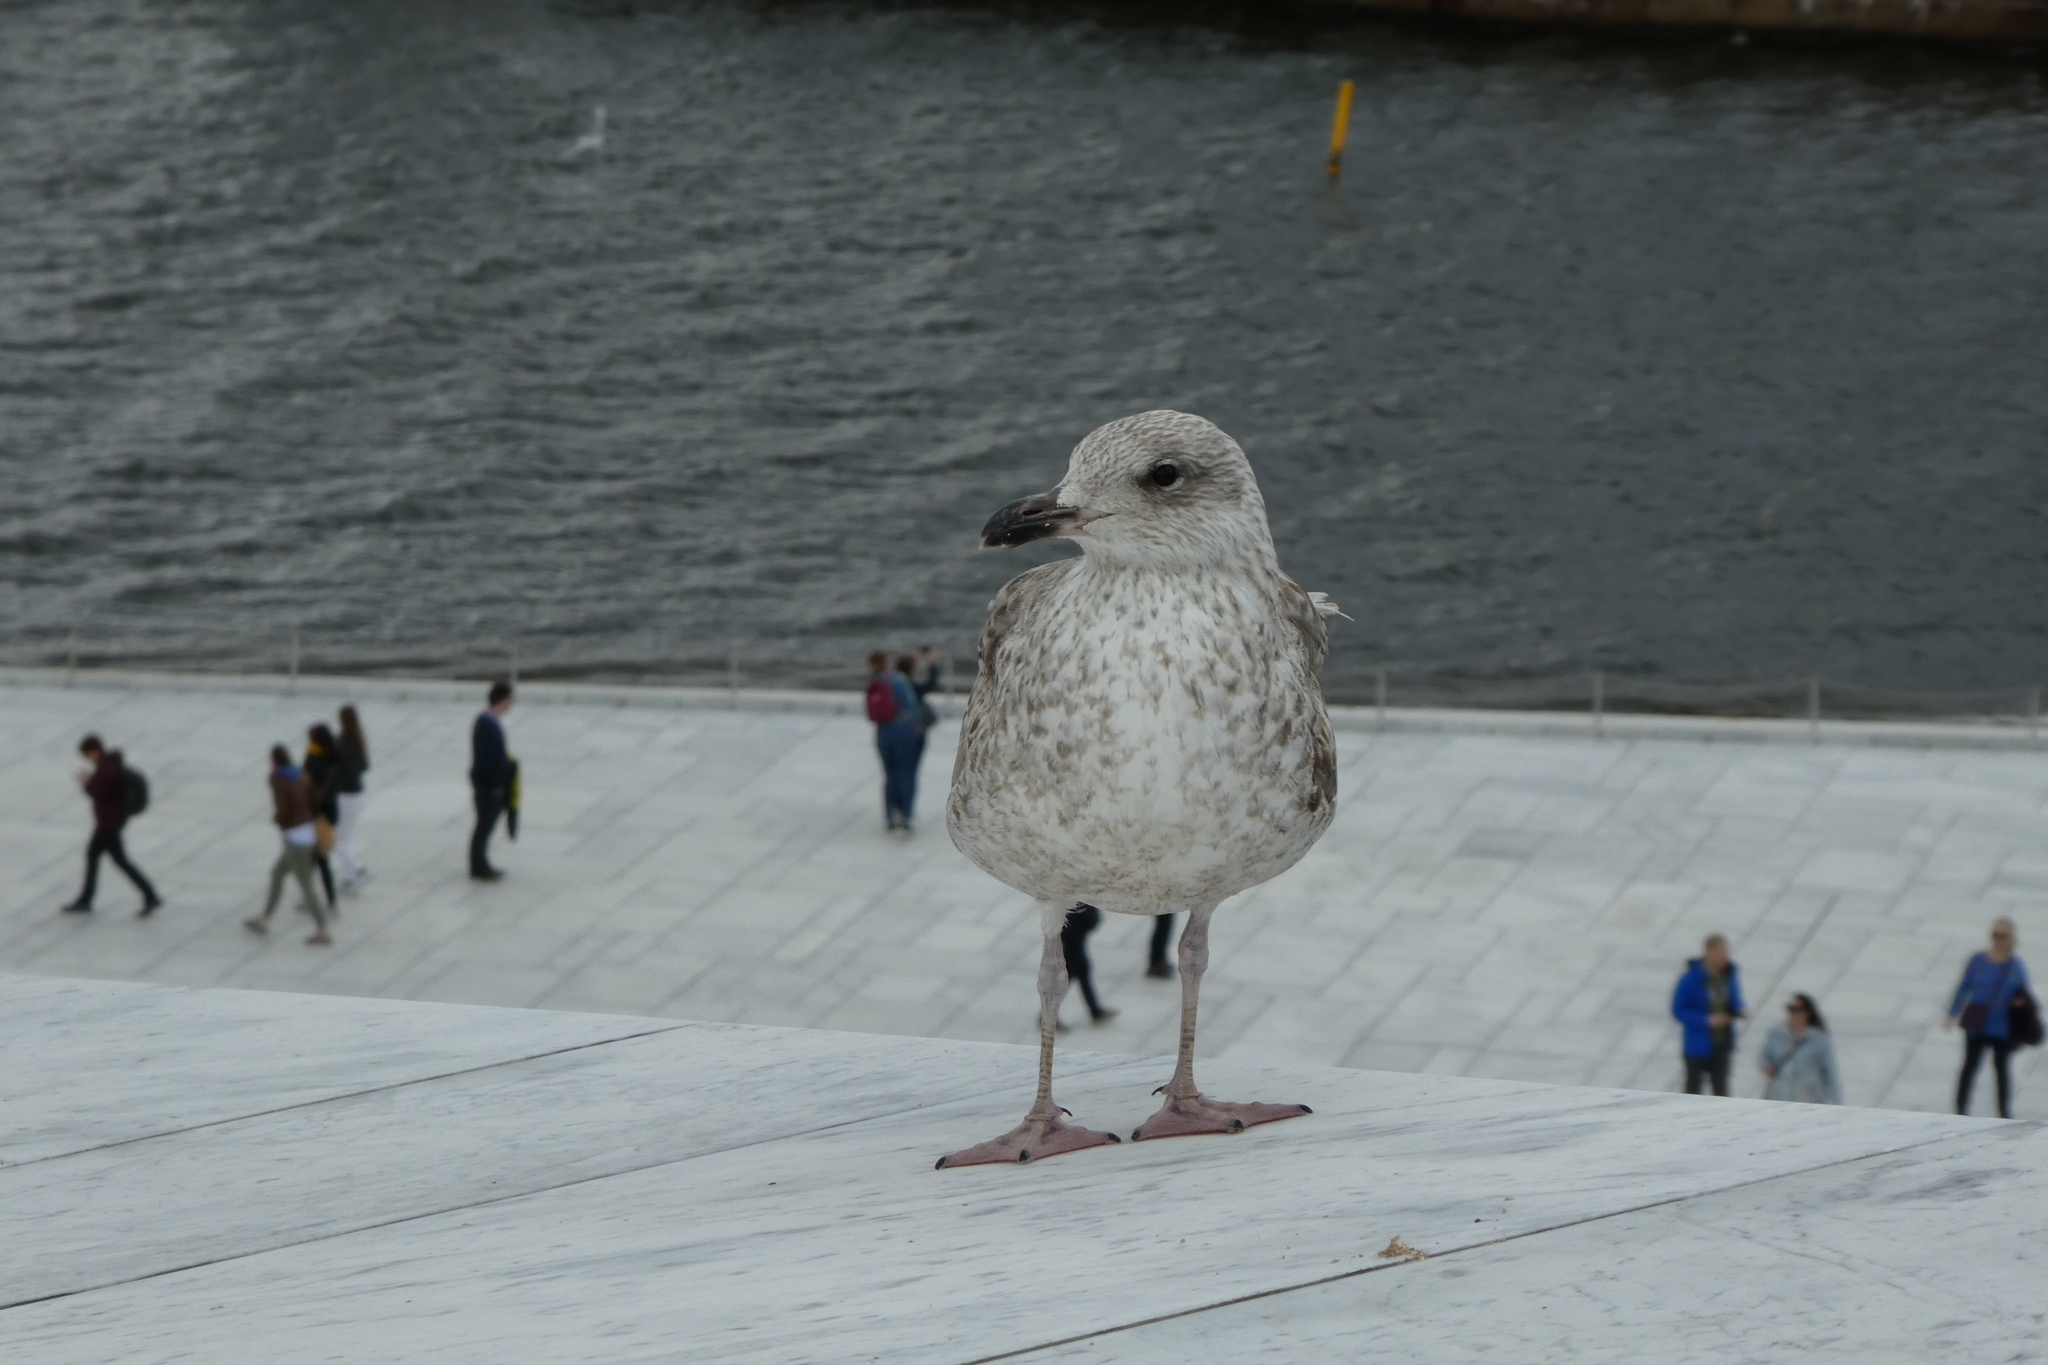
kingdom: Animalia
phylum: Chordata
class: Aves
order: Charadriiformes
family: Laridae
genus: Larus
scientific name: Larus argentatus
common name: Herring gull
